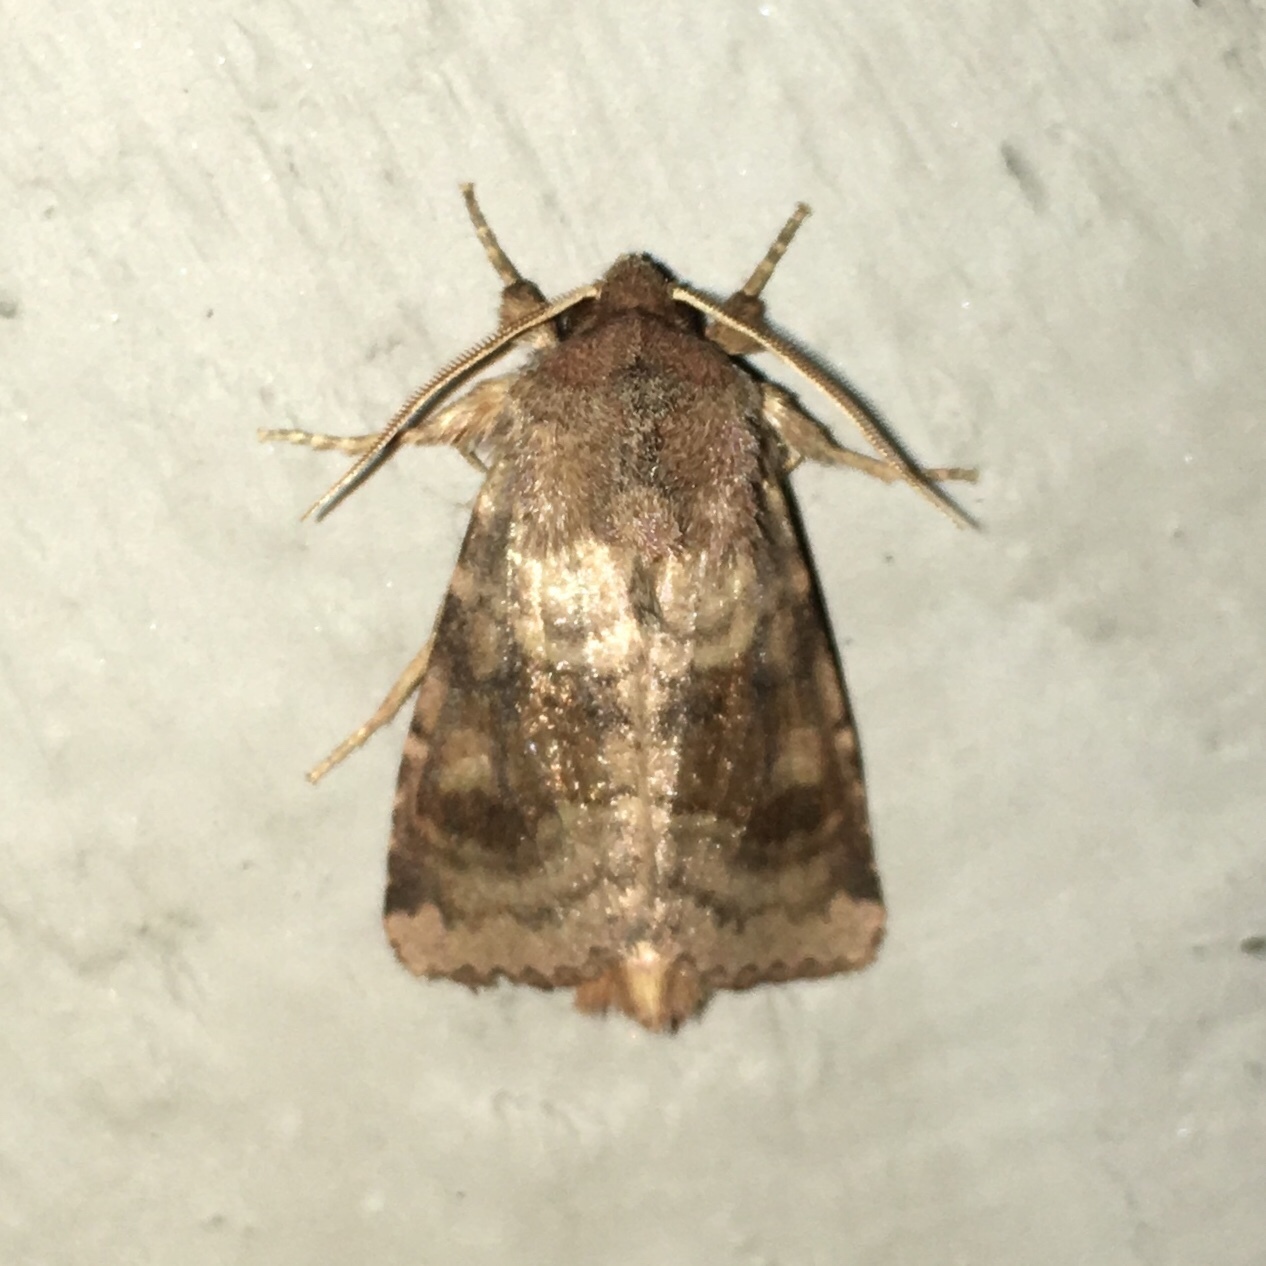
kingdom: Animalia
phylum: Arthropoda
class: Insecta
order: Lepidoptera
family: Noctuidae
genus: Nephelodes
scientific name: Nephelodes minians
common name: Bronzed cutworm
